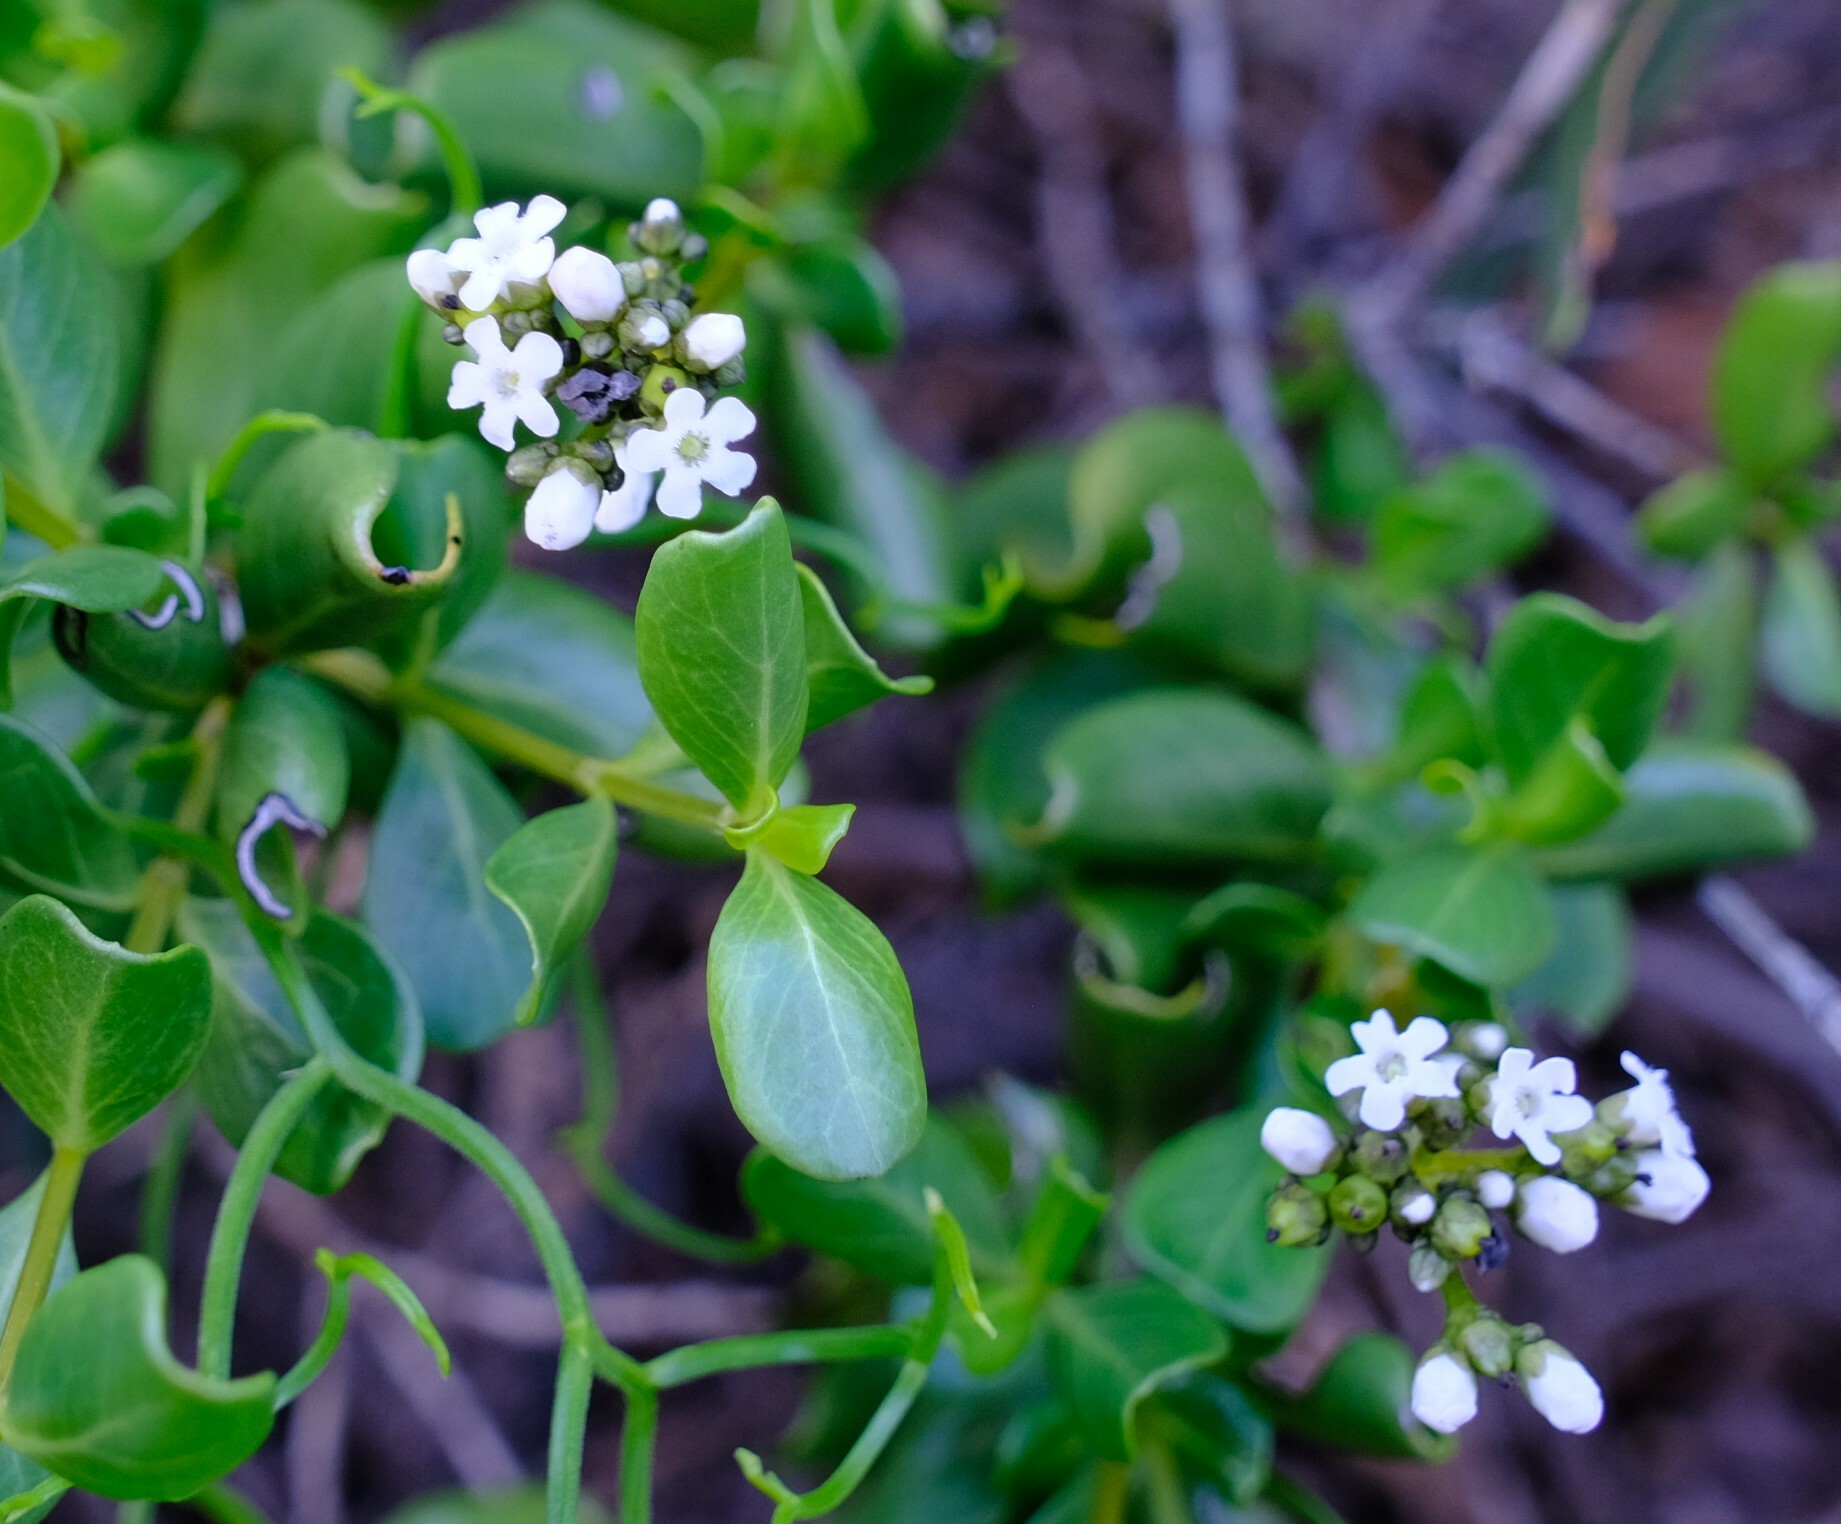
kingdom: Plantae
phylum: Tracheophyta
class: Magnoliopsida
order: Gentianales
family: Loganiaceae
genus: Logania
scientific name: Logania litoralis
